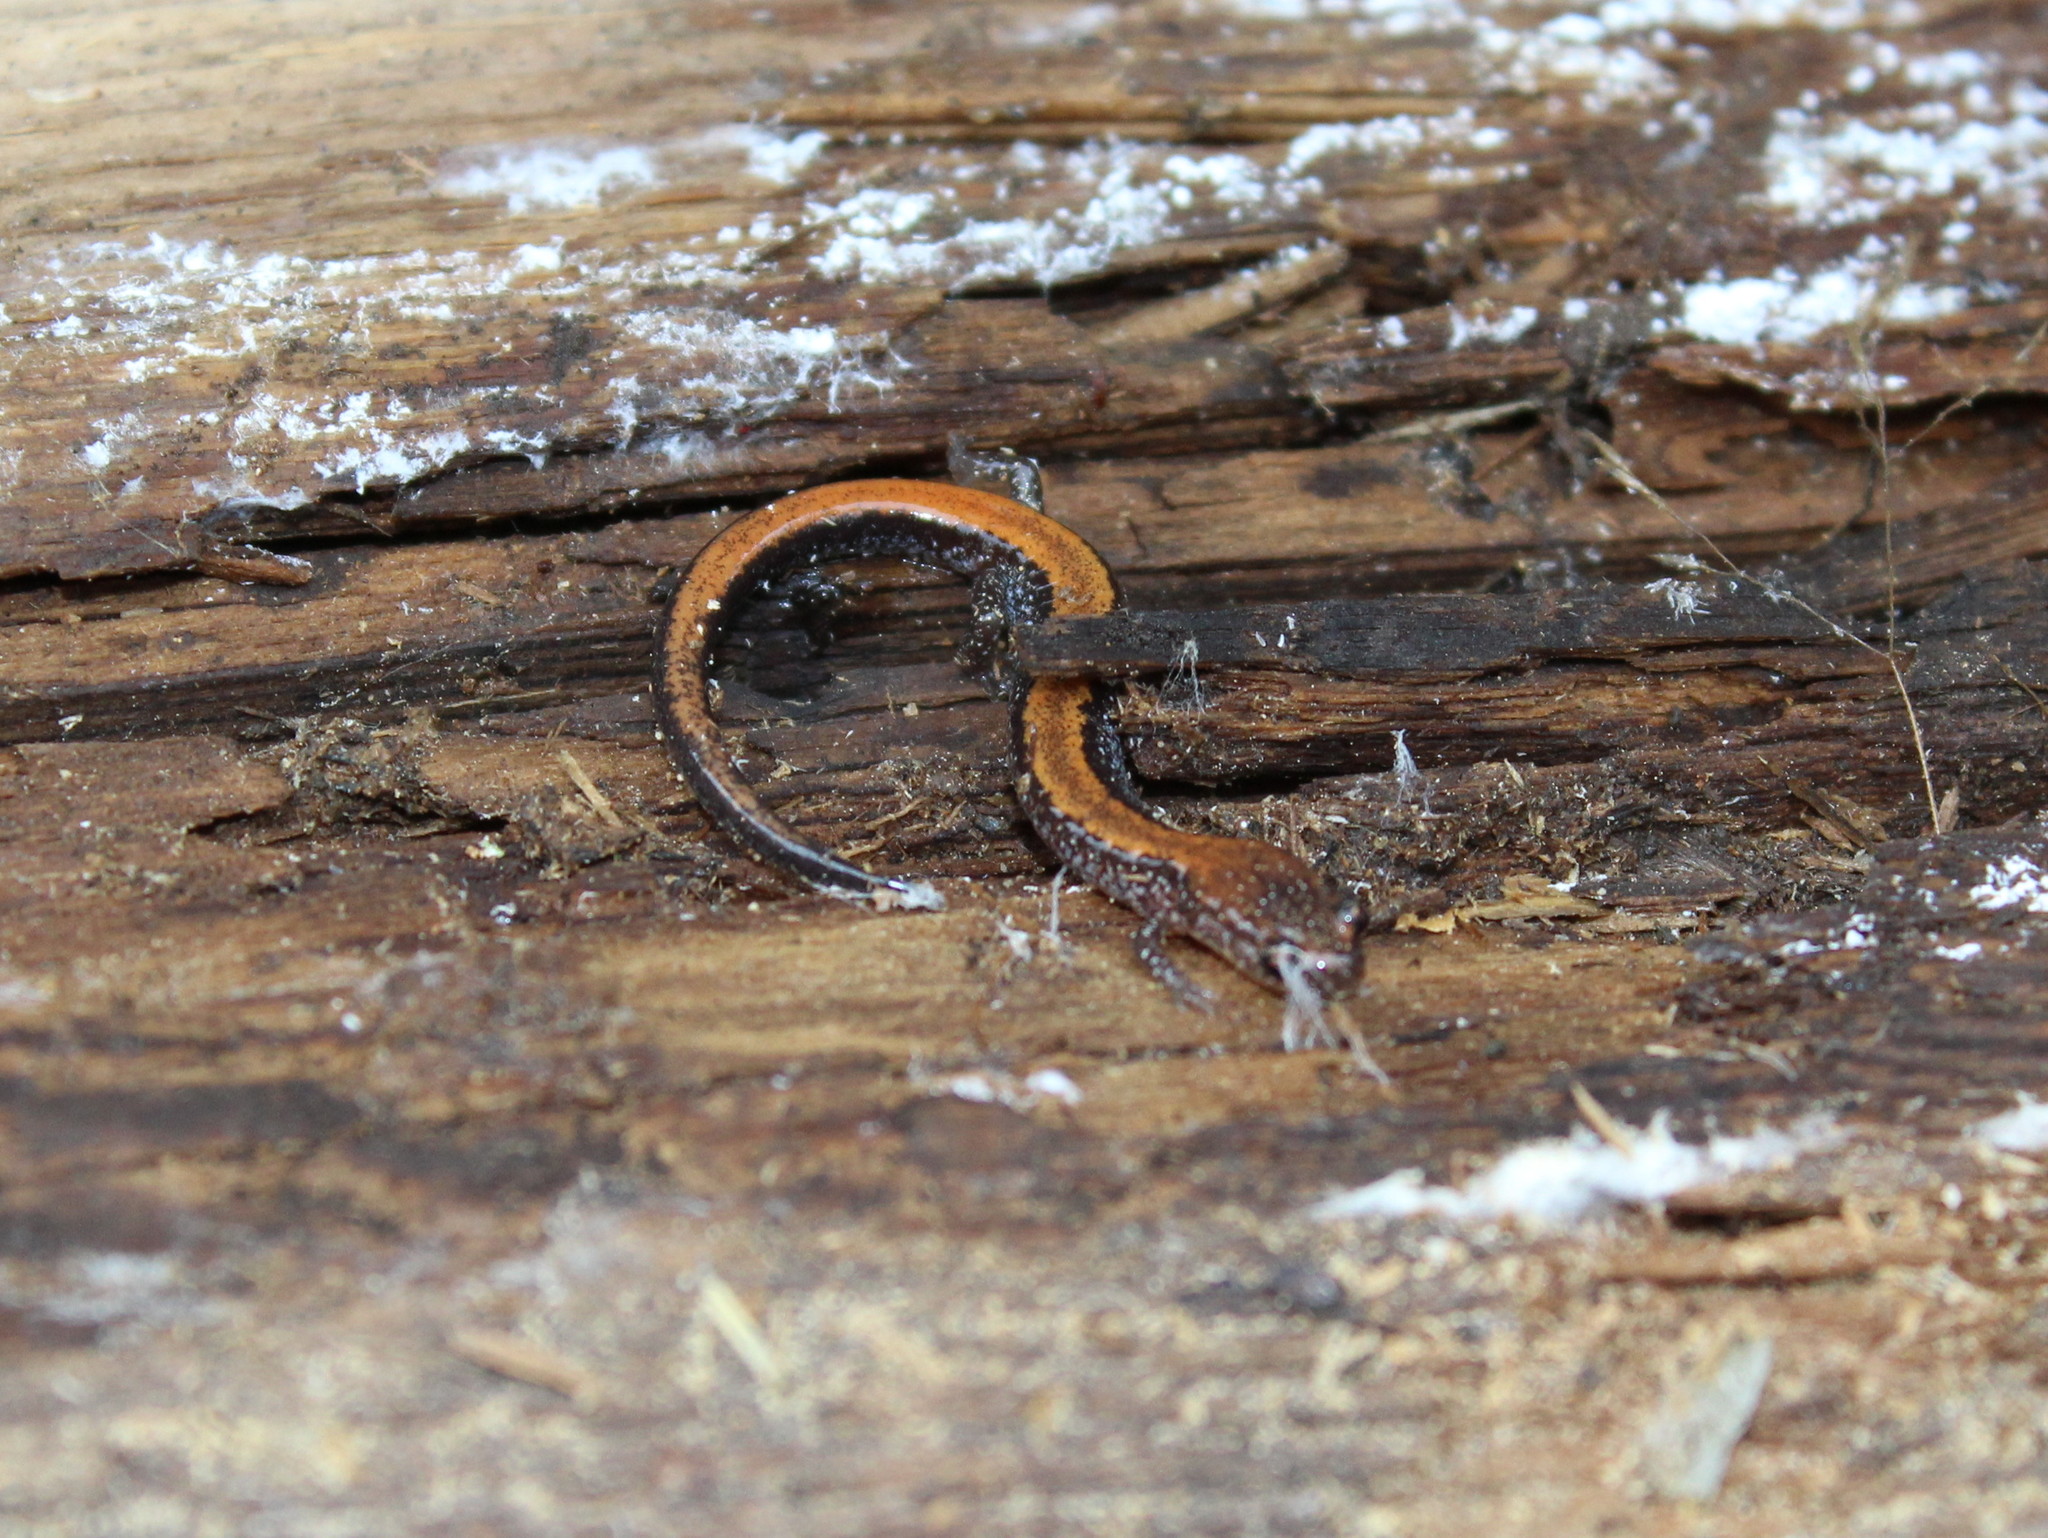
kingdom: Animalia
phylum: Chordata
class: Amphibia
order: Caudata
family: Plethodontidae
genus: Plethodon
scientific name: Plethodon cinereus
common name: Redback salamander
